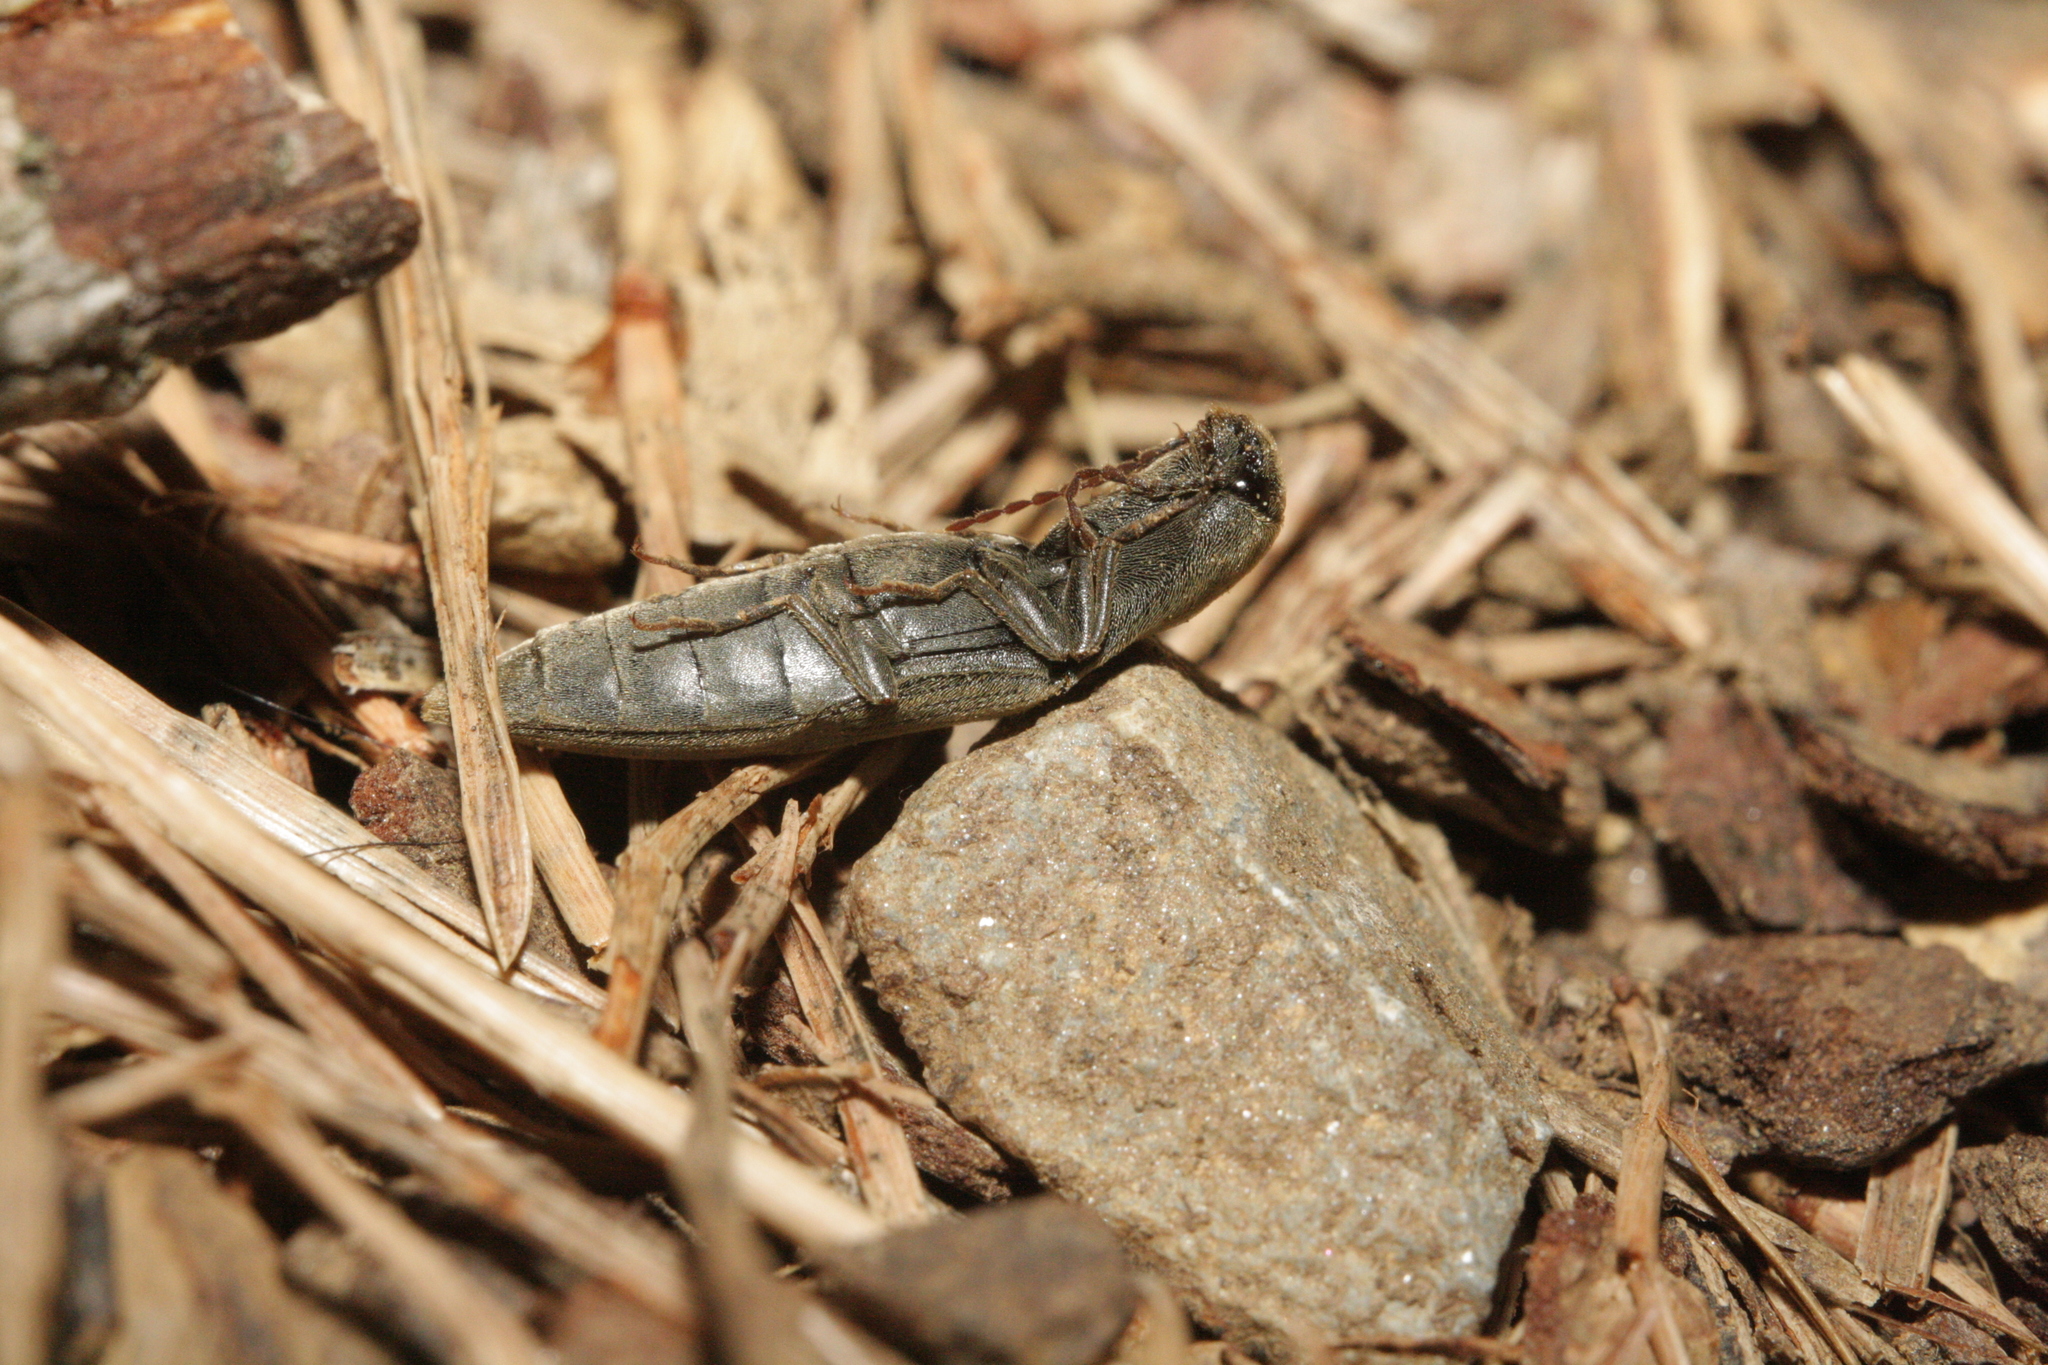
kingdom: Animalia
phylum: Arthropoda
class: Insecta
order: Coleoptera
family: Elateridae
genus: Agriotes
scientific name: Agriotes pilosellus
